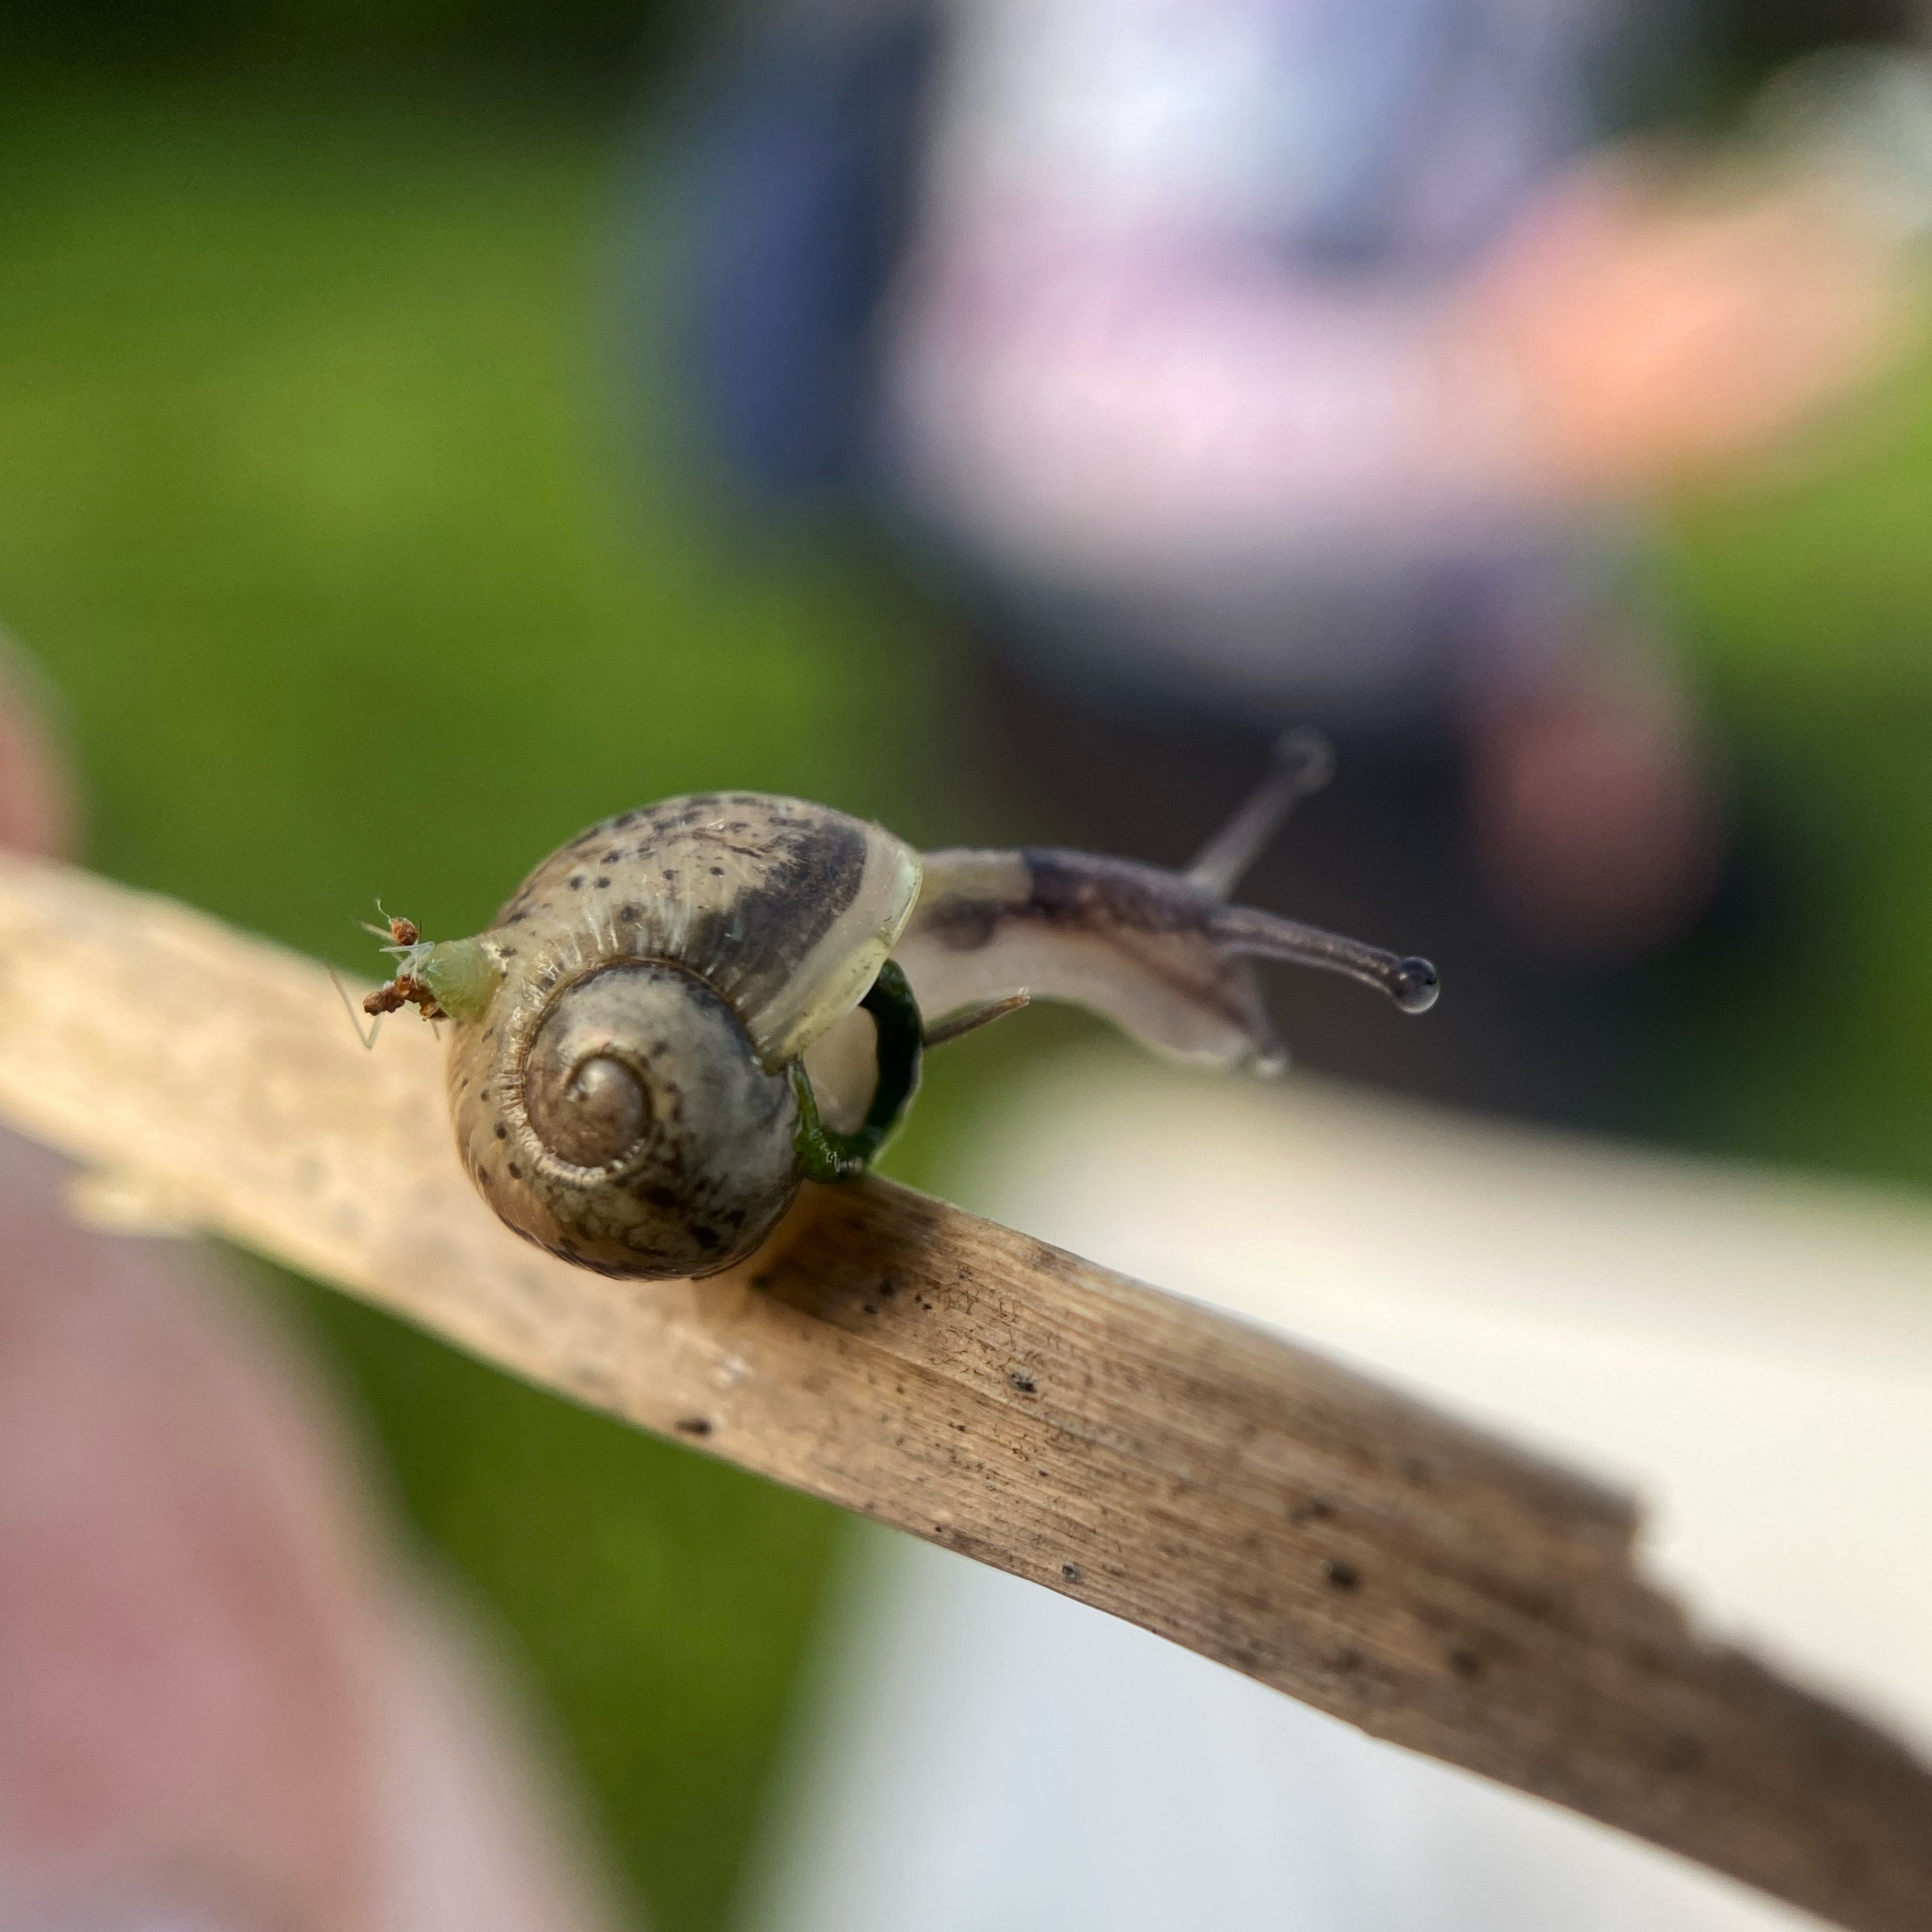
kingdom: Animalia
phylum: Mollusca
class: Gastropoda
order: Stylommatophora
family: Helicidae
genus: Cornu
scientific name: Cornu aspersum
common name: Brown garden snail
